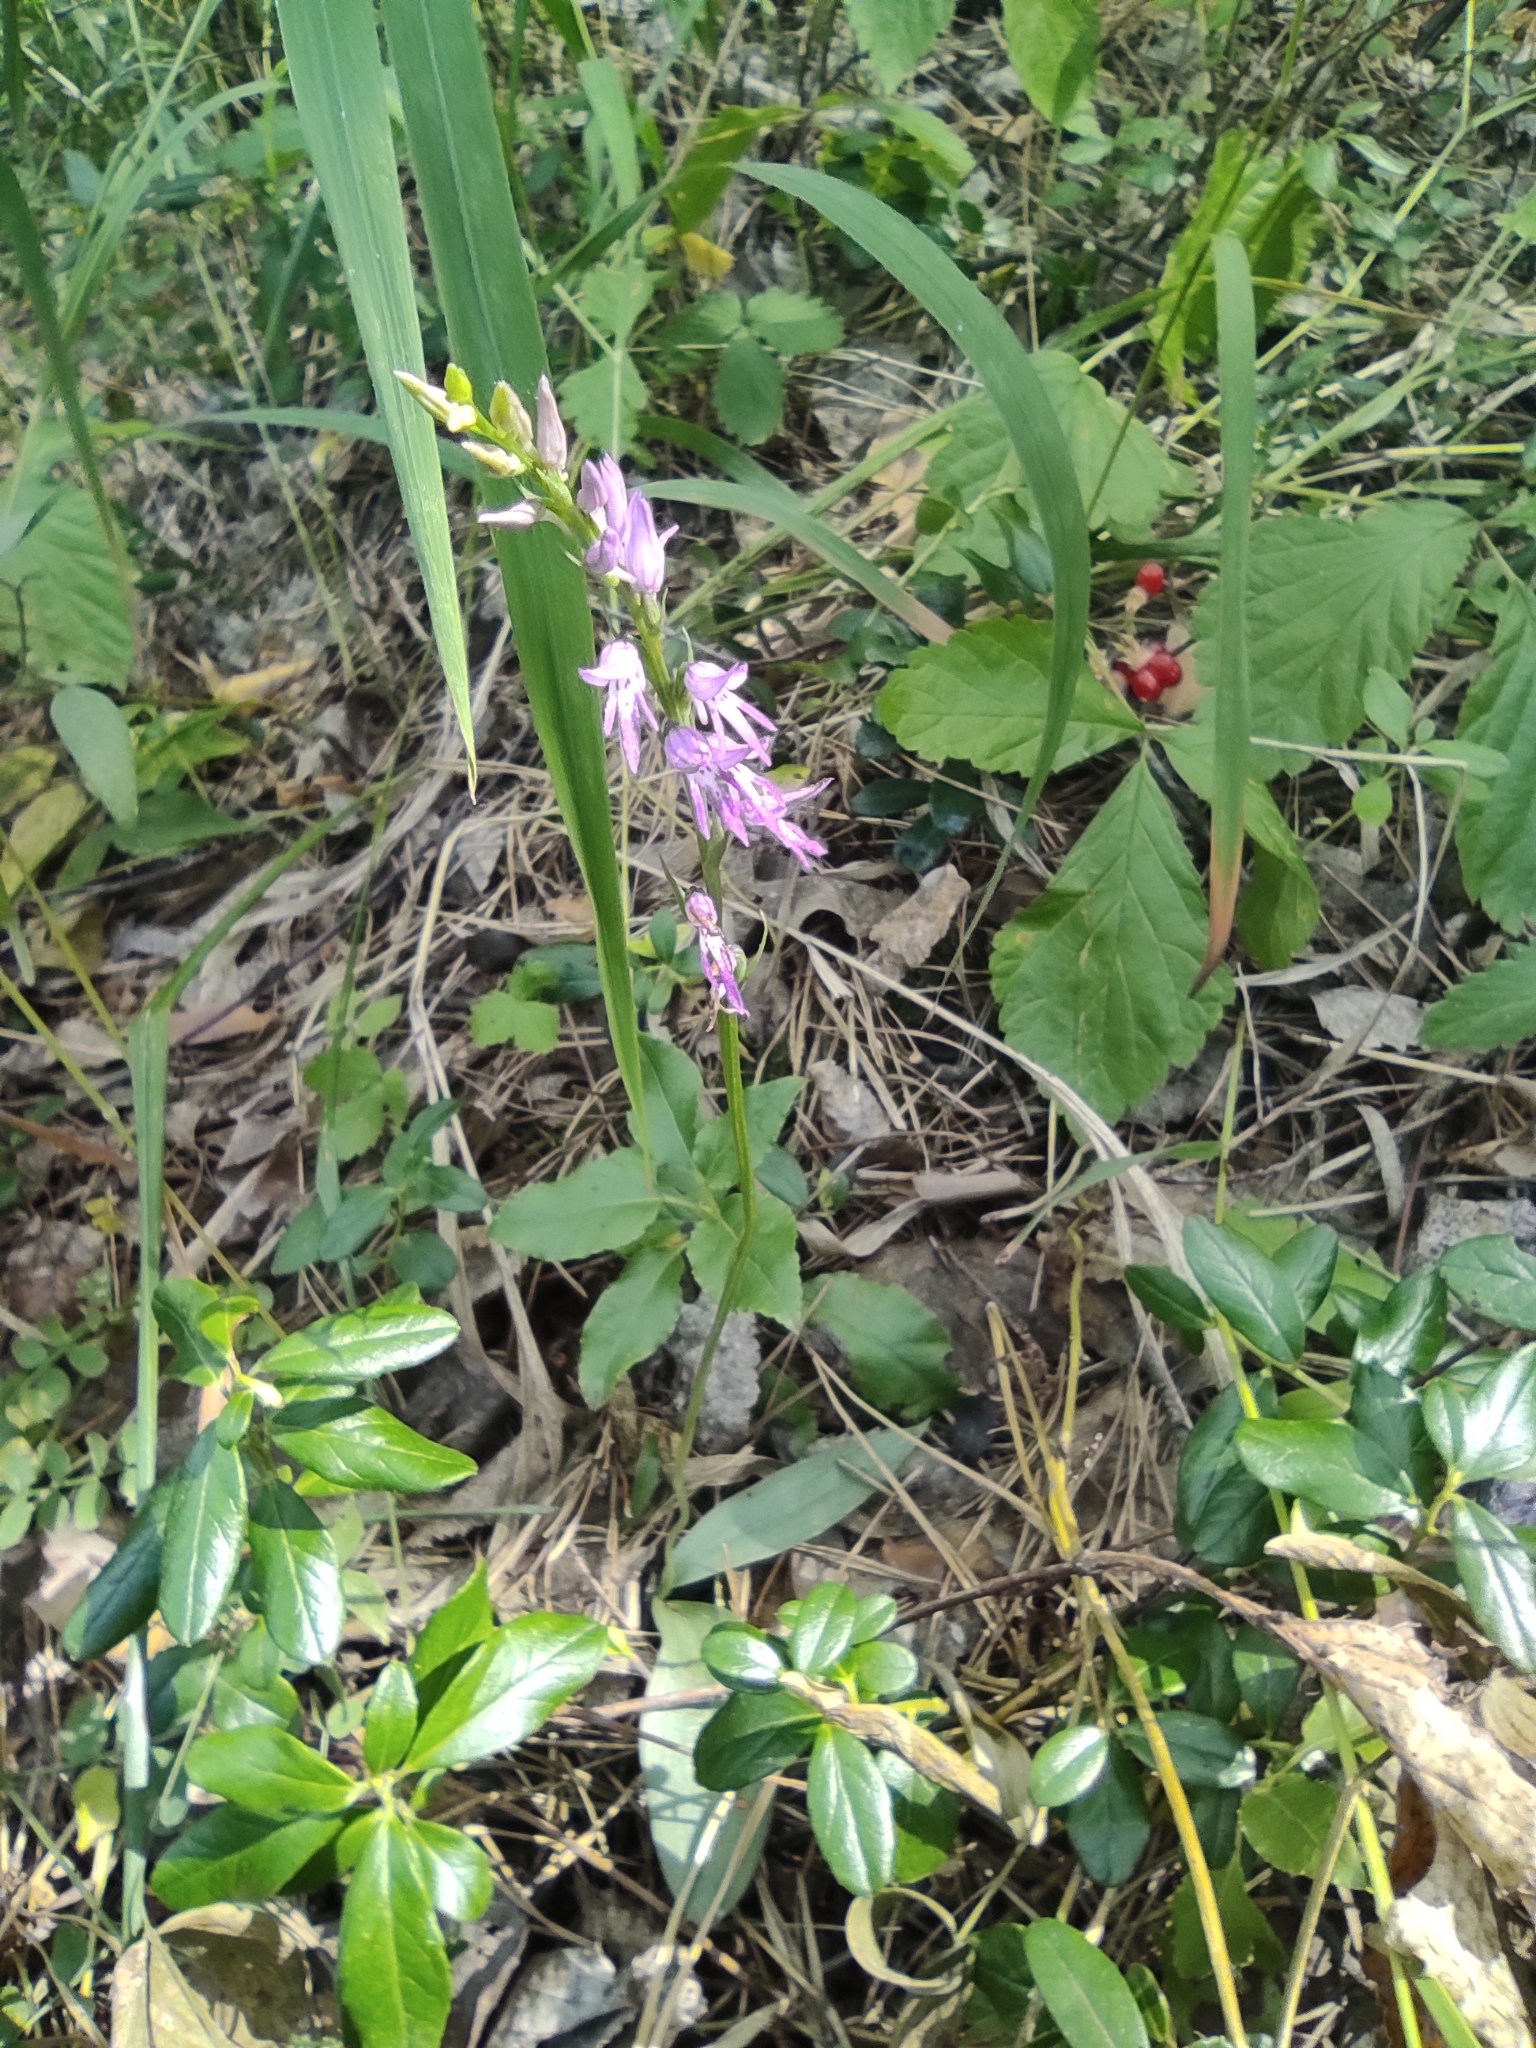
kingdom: Plantae
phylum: Tracheophyta
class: Liliopsida
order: Asparagales
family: Orchidaceae
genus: Hemipilia
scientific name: Hemipilia cucullata
